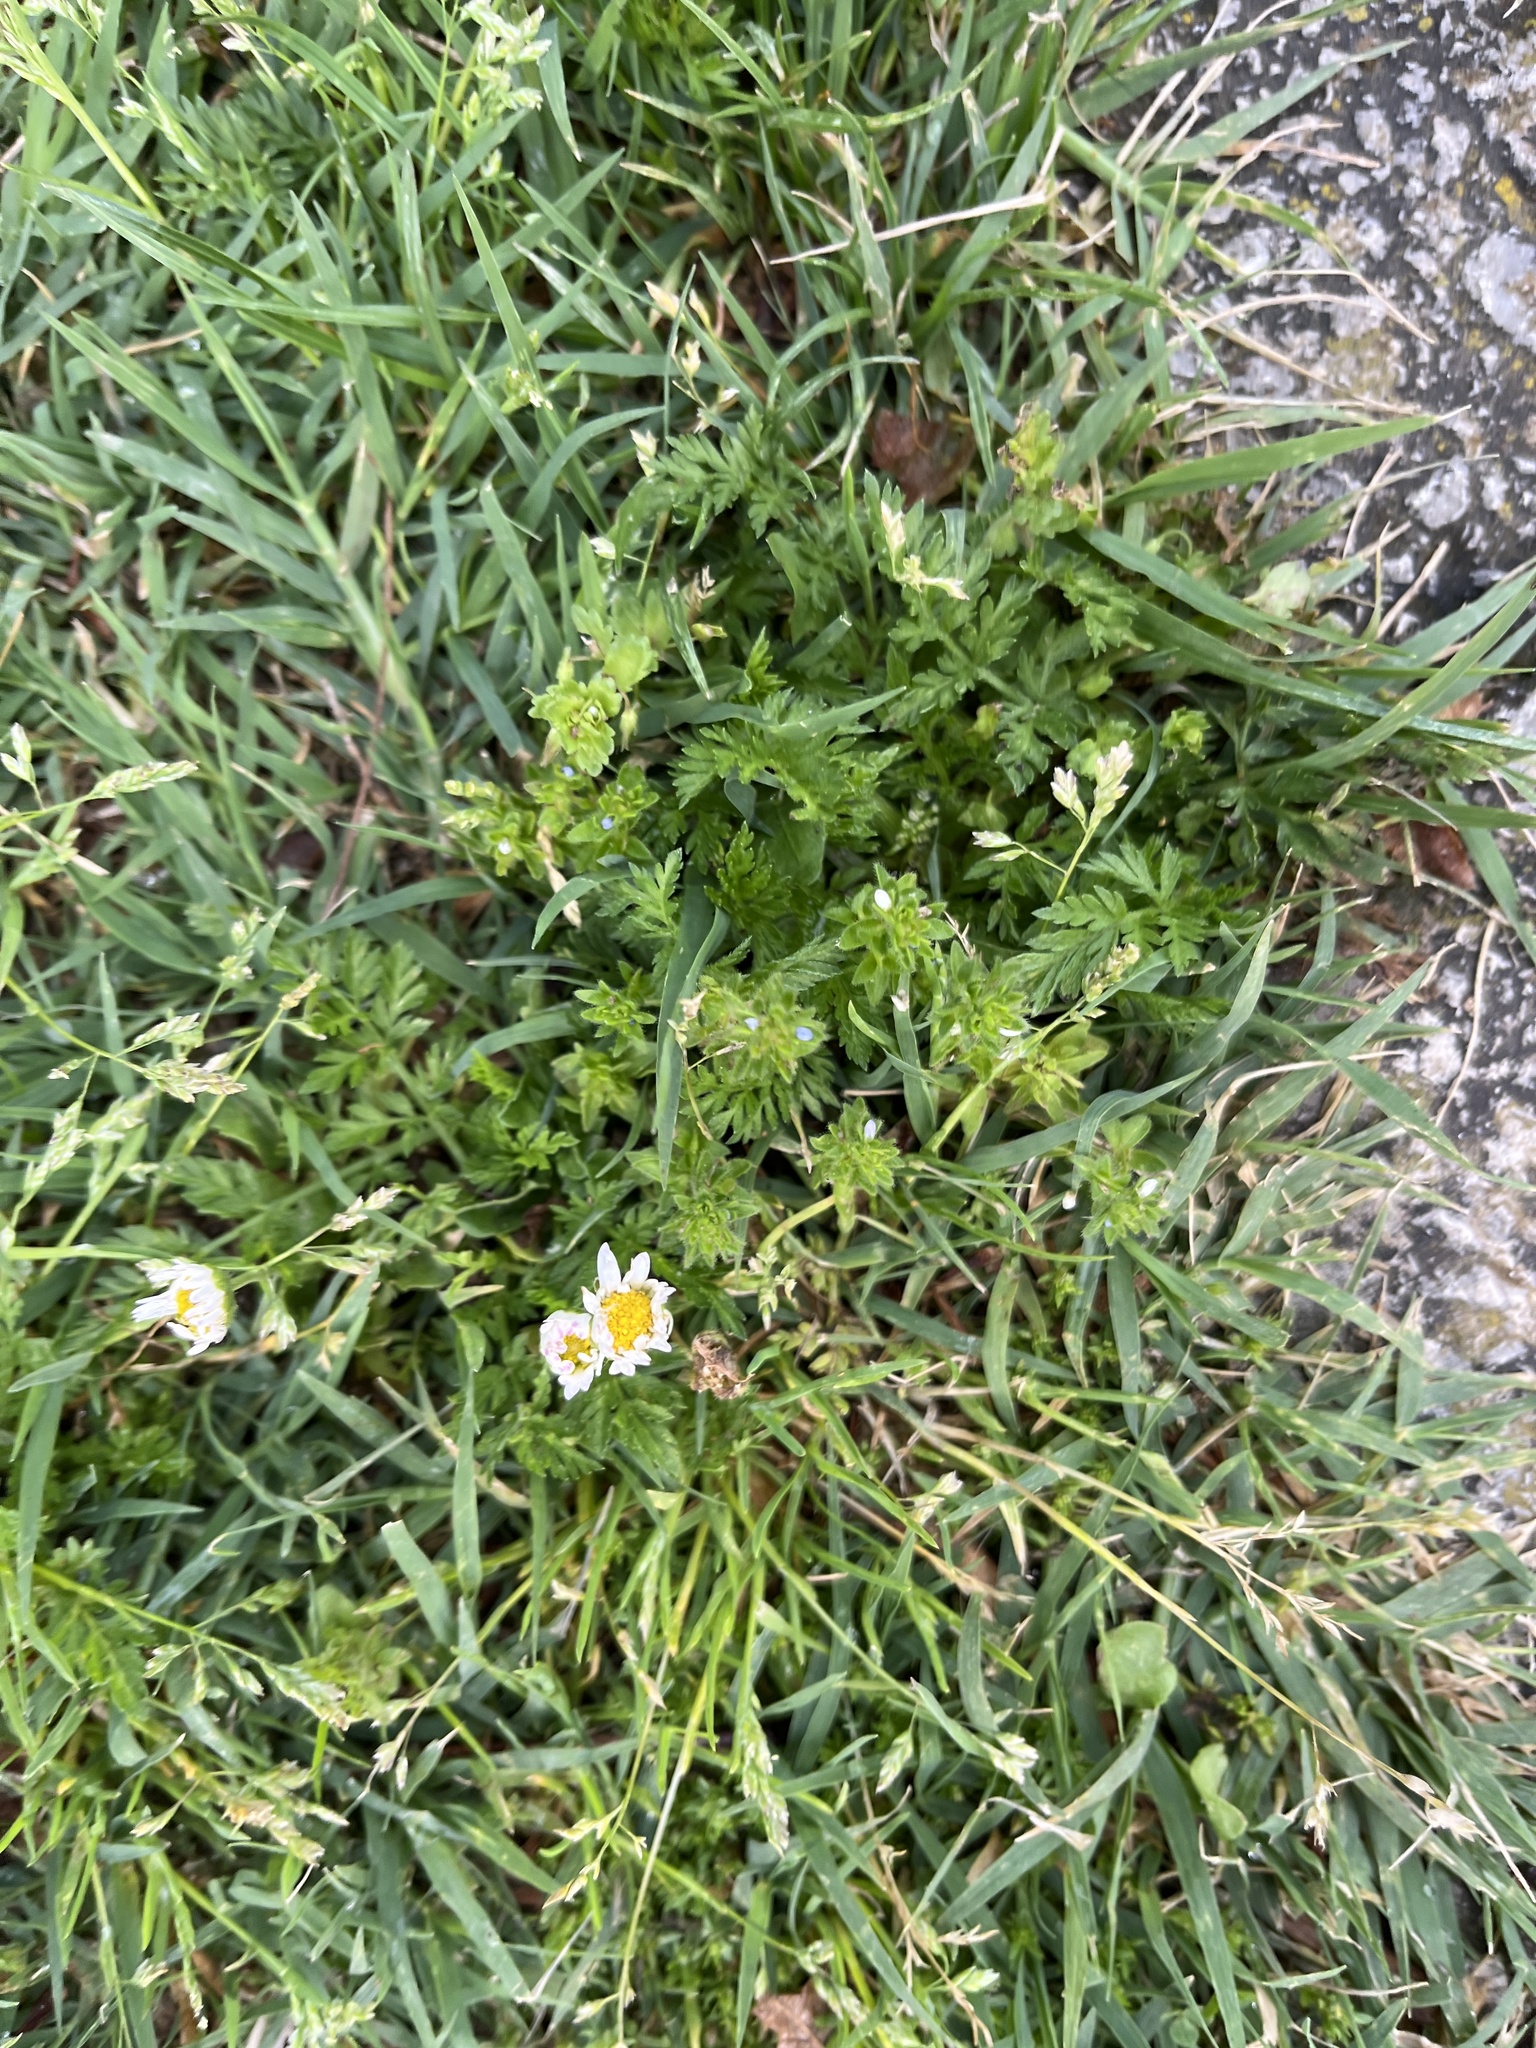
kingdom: Plantae
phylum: Tracheophyta
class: Magnoliopsida
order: Asterales
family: Asteraceae
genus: Bellis
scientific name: Bellis perennis
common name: Lawndaisy
